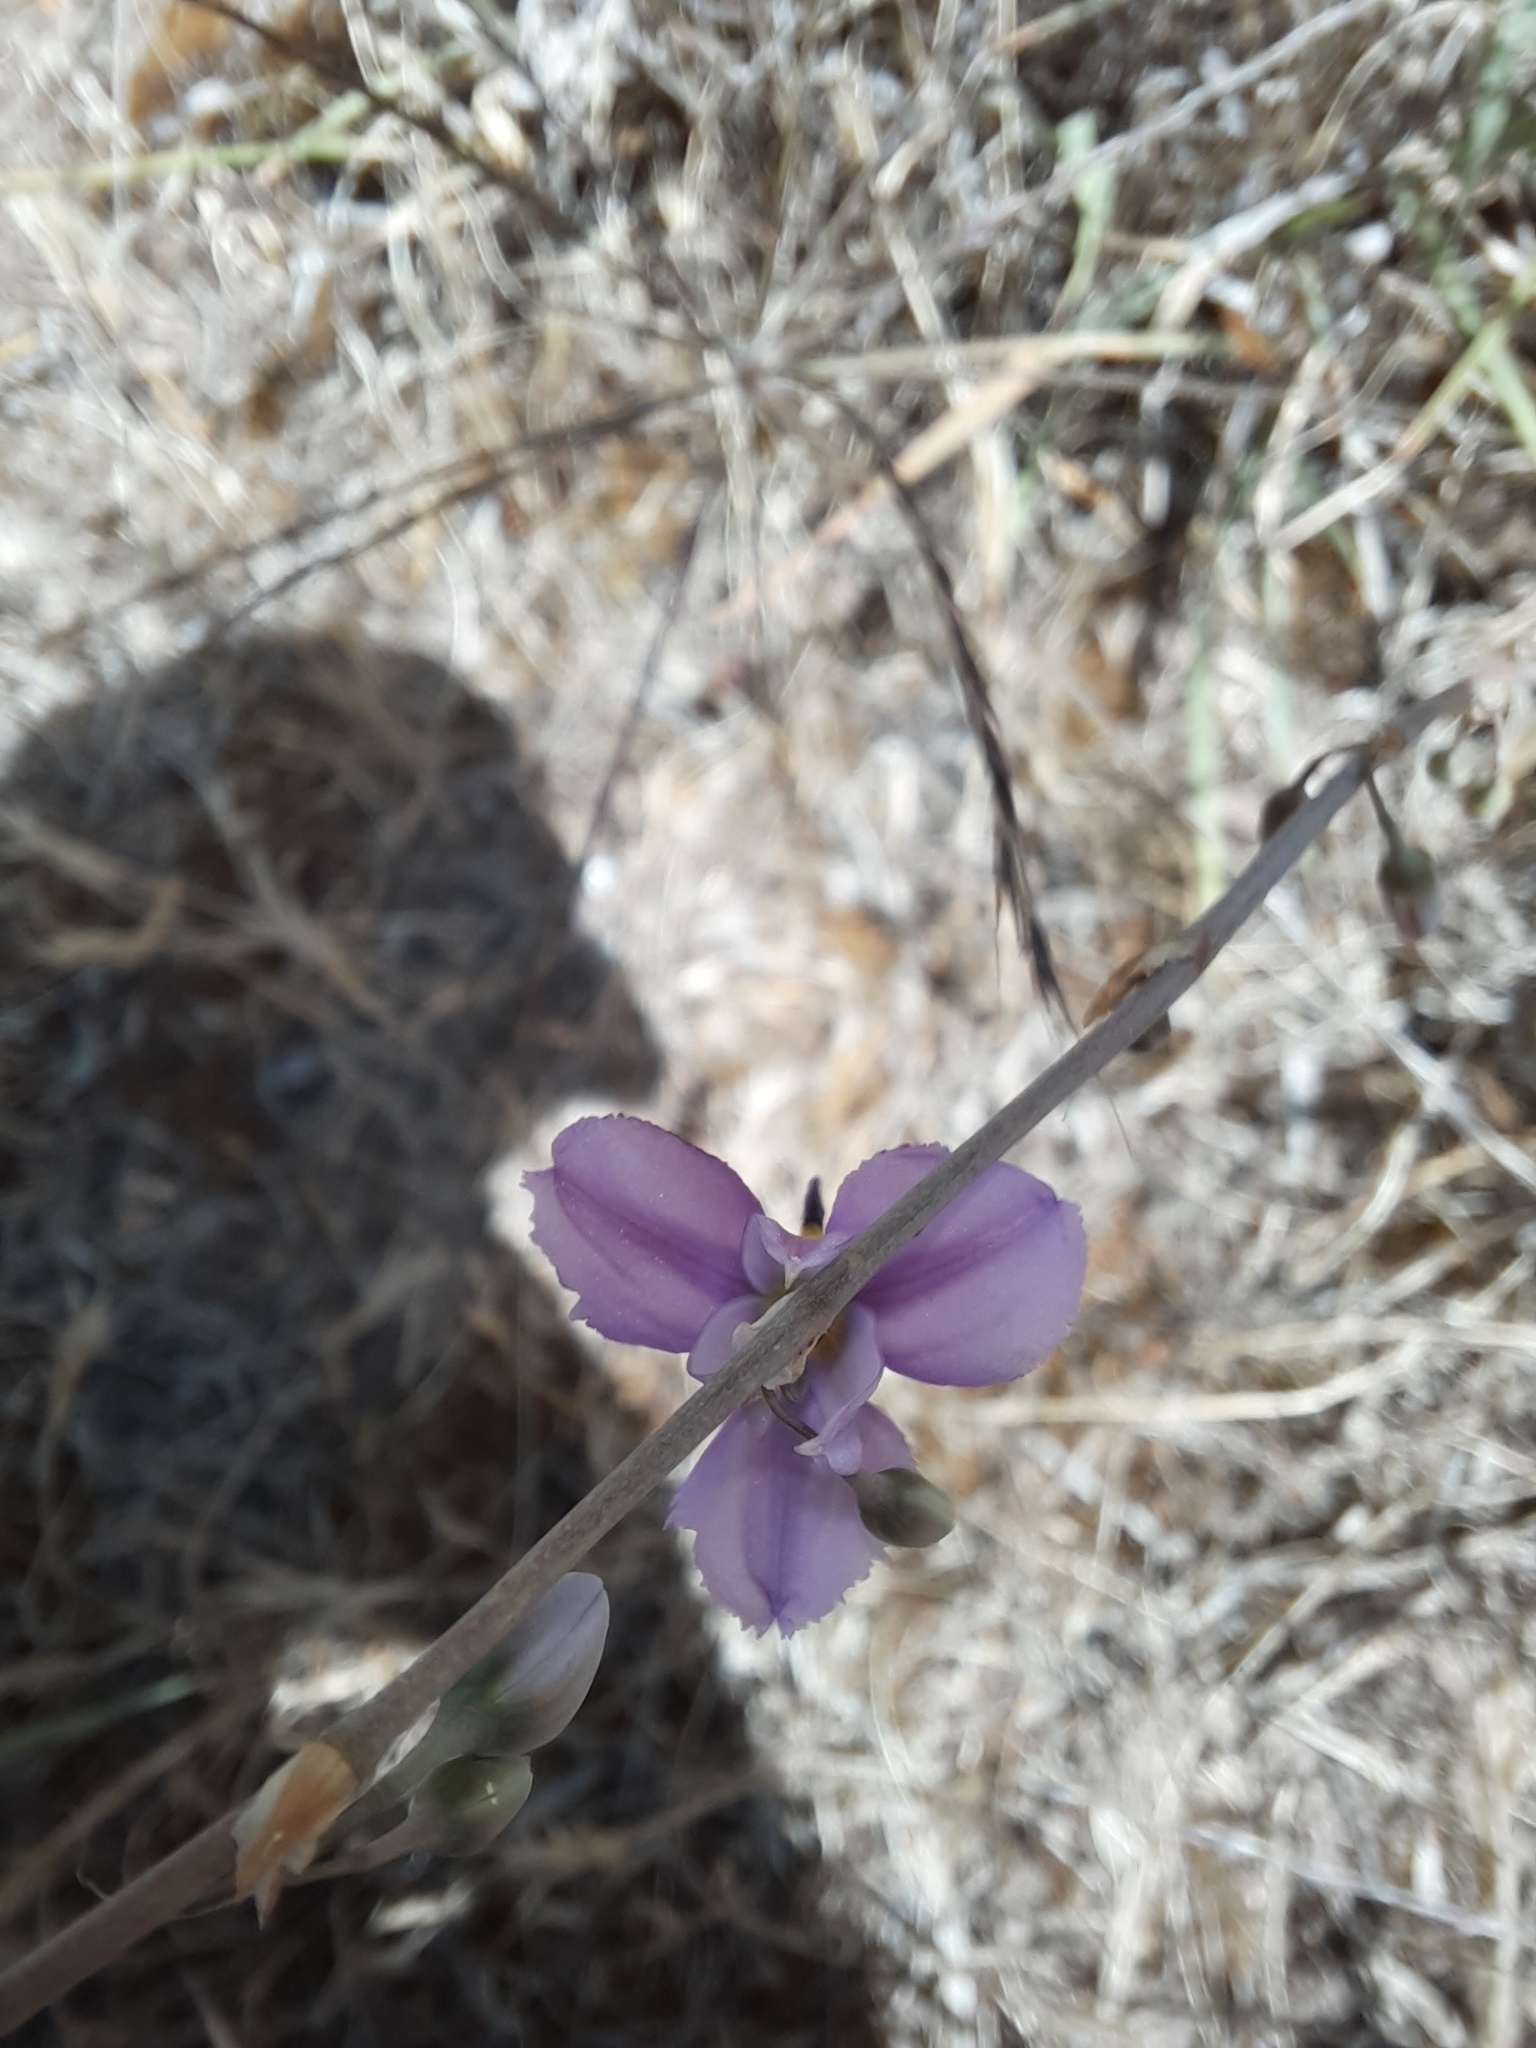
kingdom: Plantae
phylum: Tracheophyta
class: Liliopsida
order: Asparagales
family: Asparagaceae
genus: Dichopogon
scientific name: Dichopogon fimbriatus
